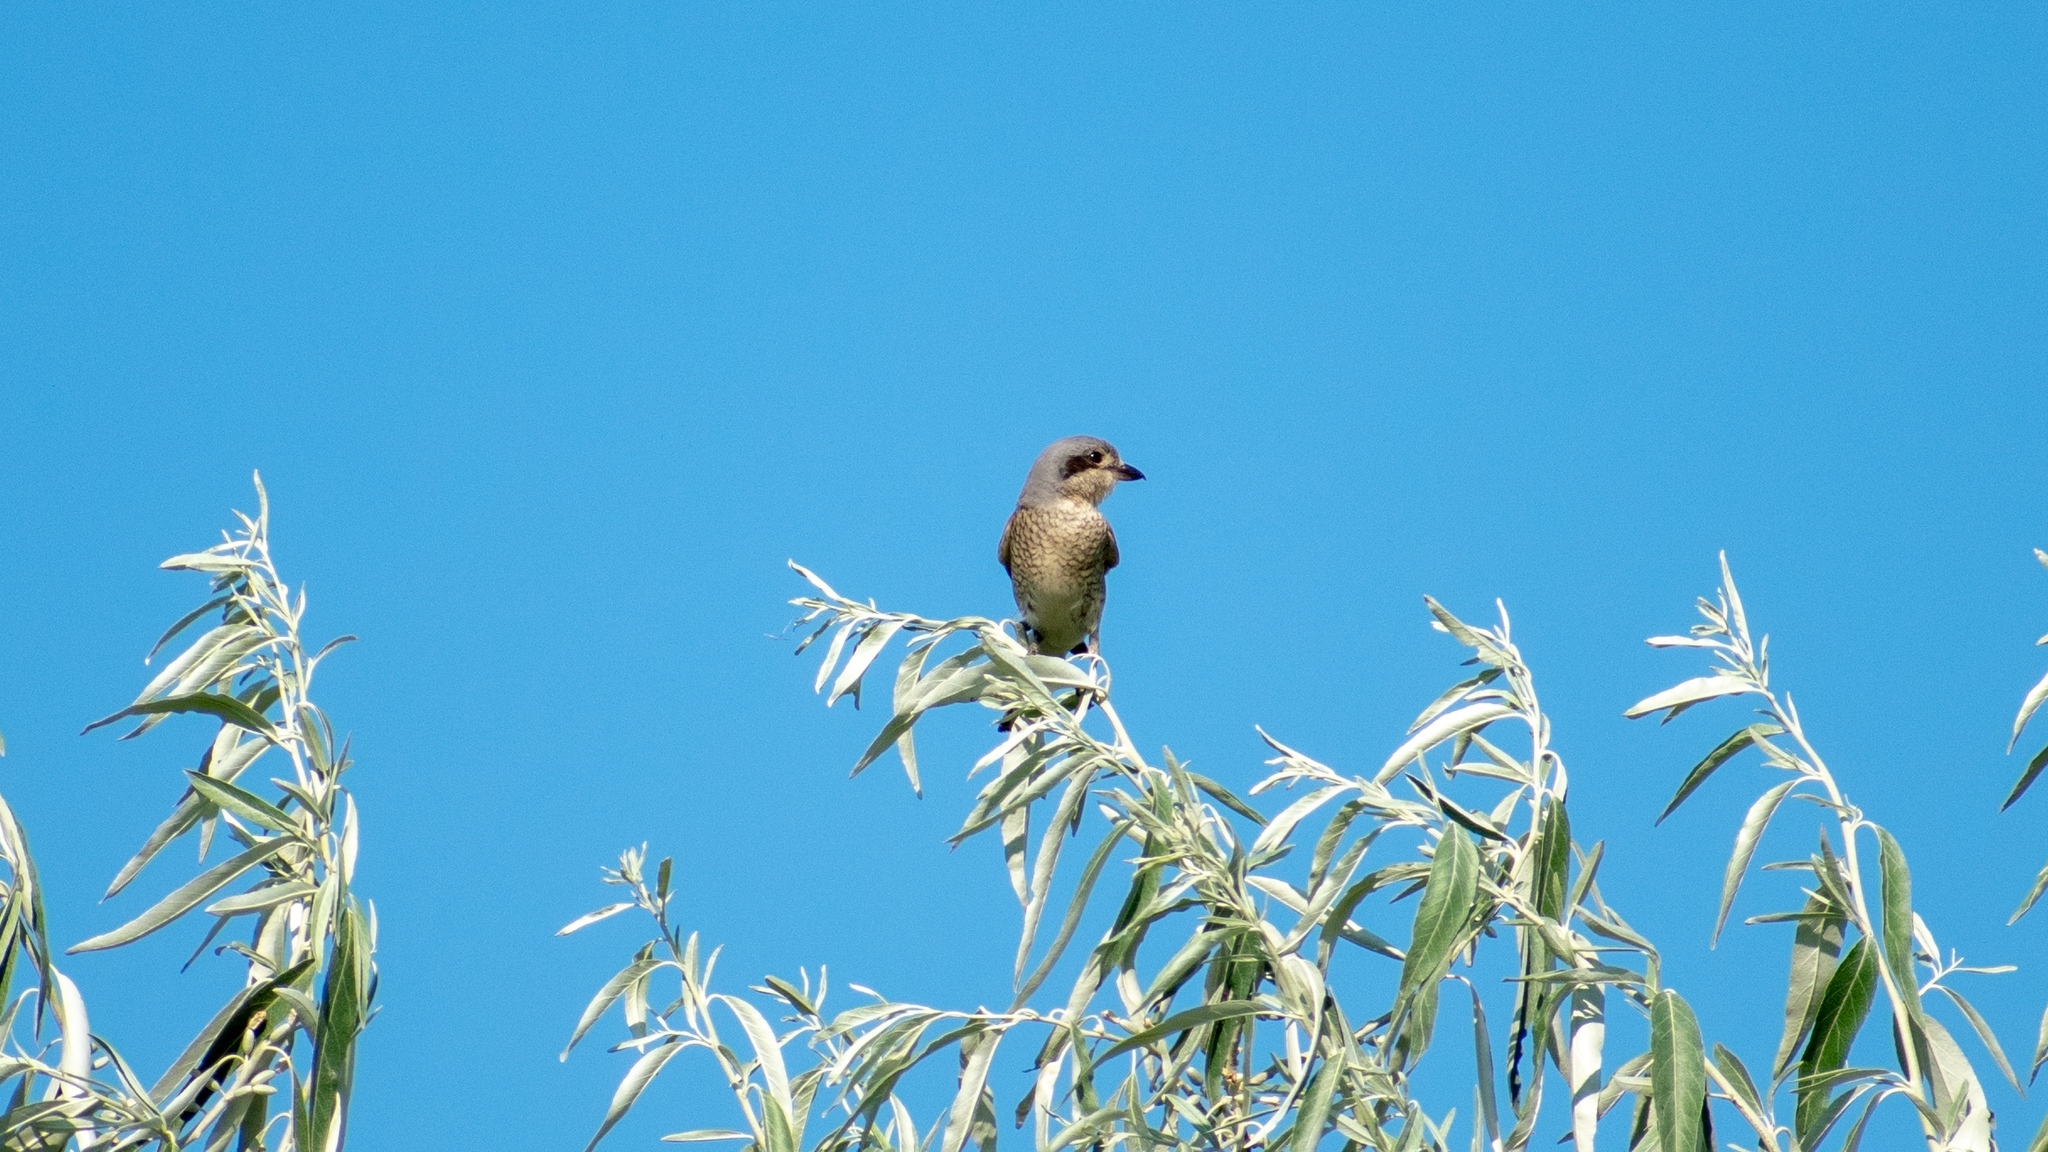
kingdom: Animalia
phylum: Chordata
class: Aves
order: Passeriformes
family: Laniidae
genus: Lanius
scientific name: Lanius collurio
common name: Red-backed shrike
